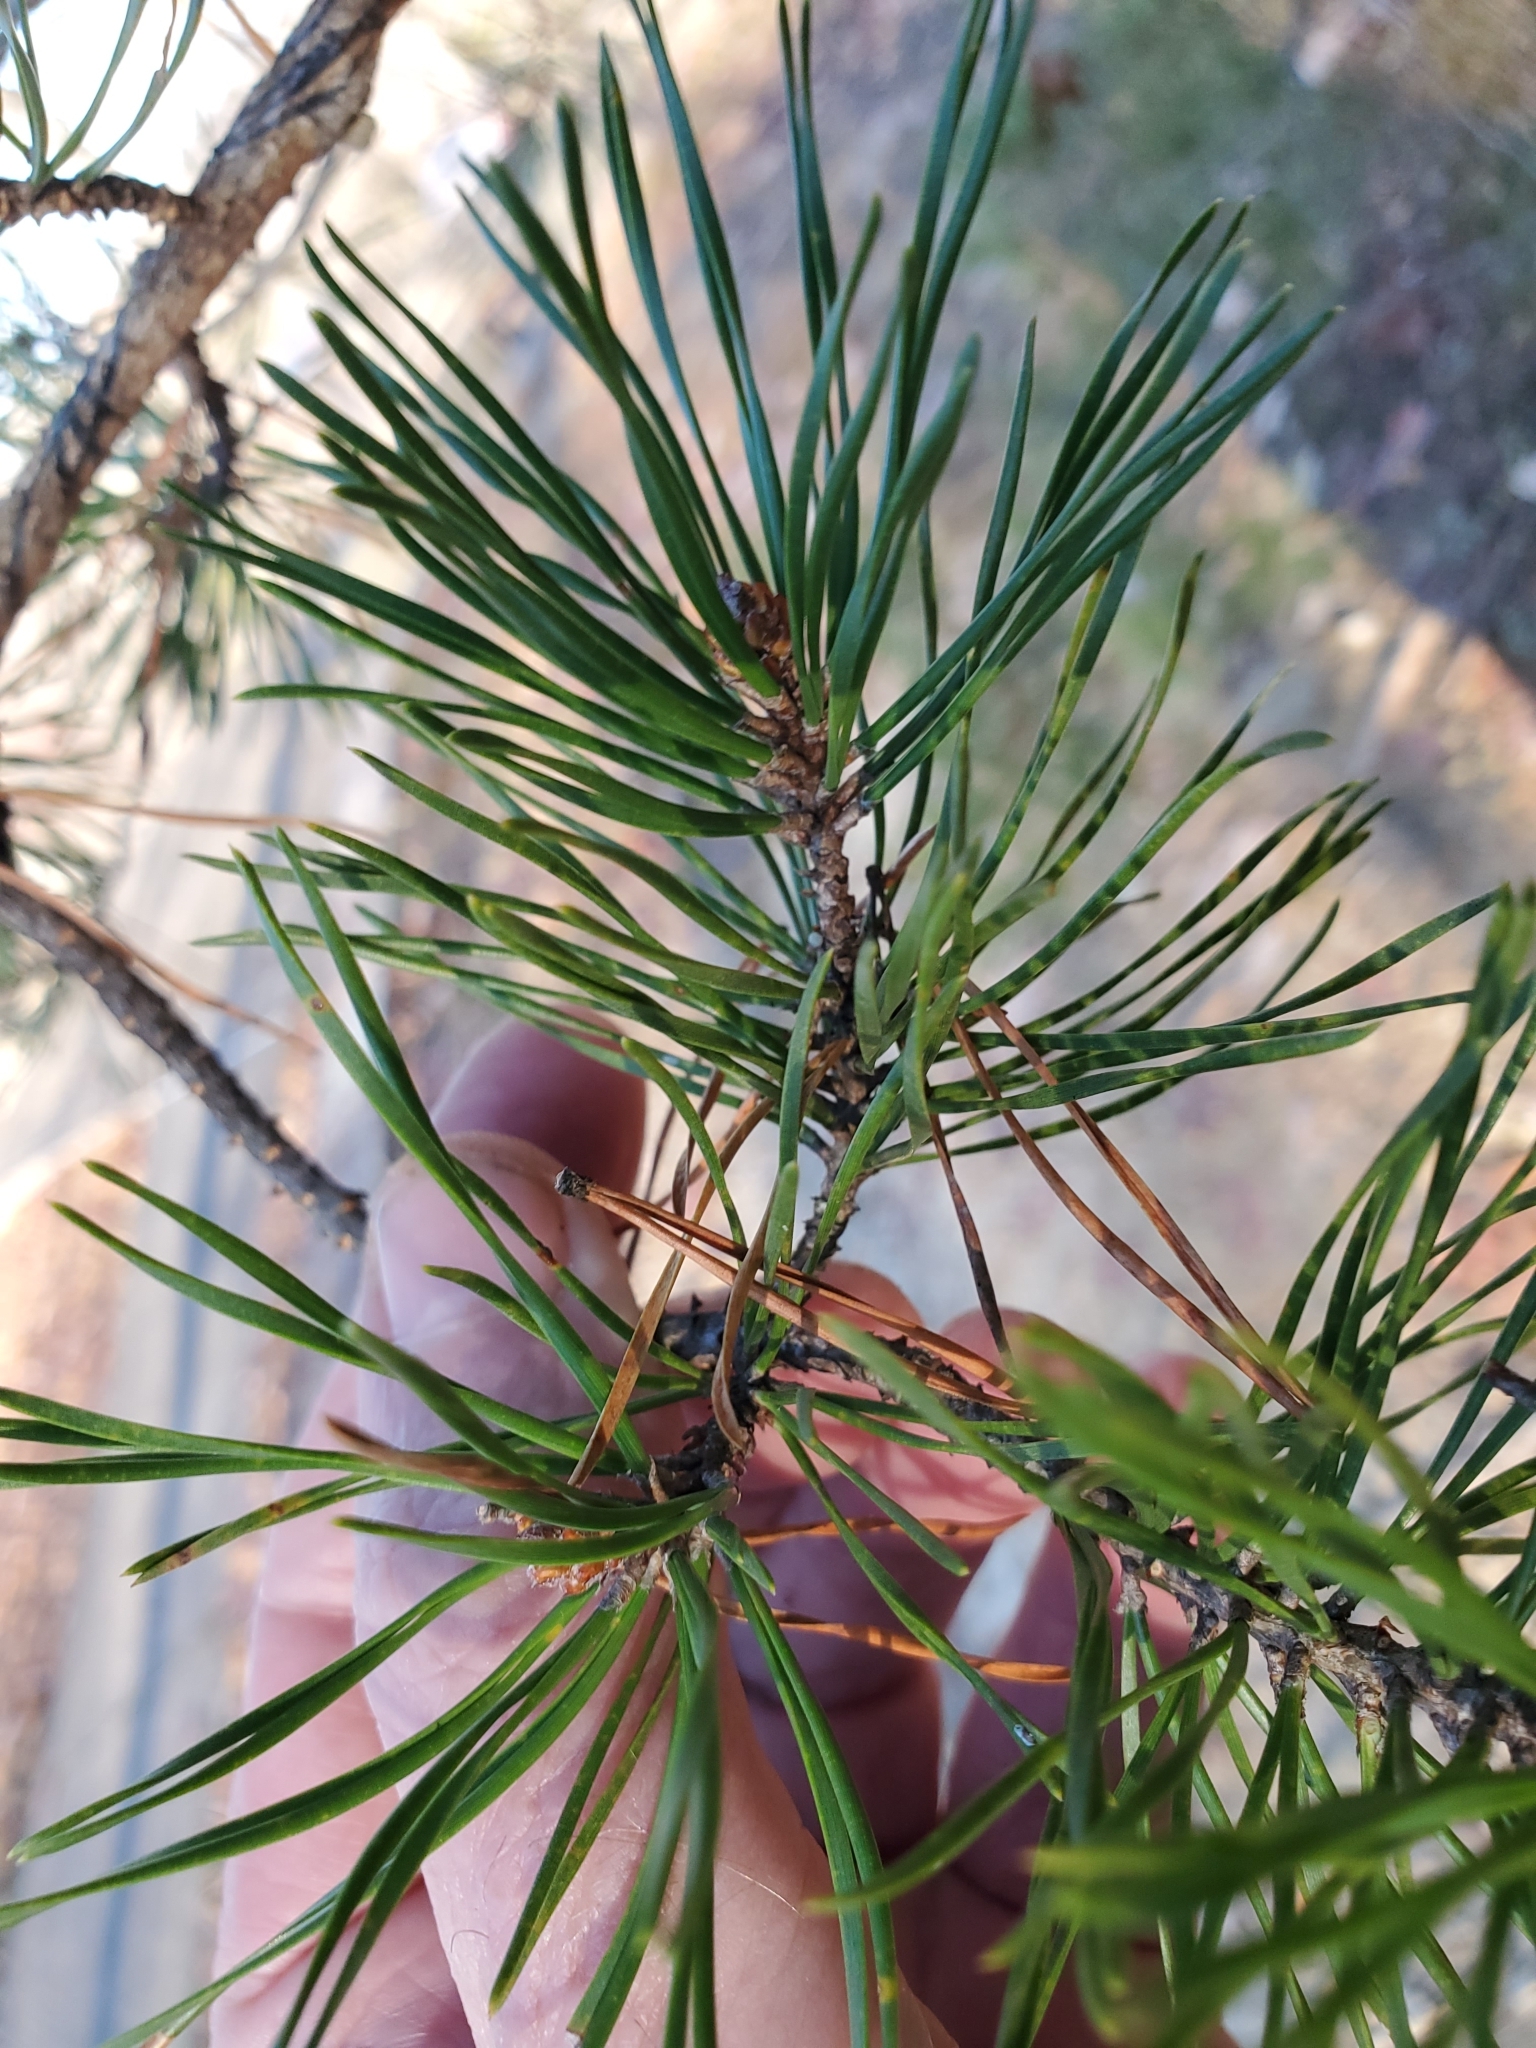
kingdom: Plantae
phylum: Tracheophyta
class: Pinopsida
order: Pinales
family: Pinaceae
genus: Pinus
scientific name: Pinus virginiana
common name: Scrub pine
